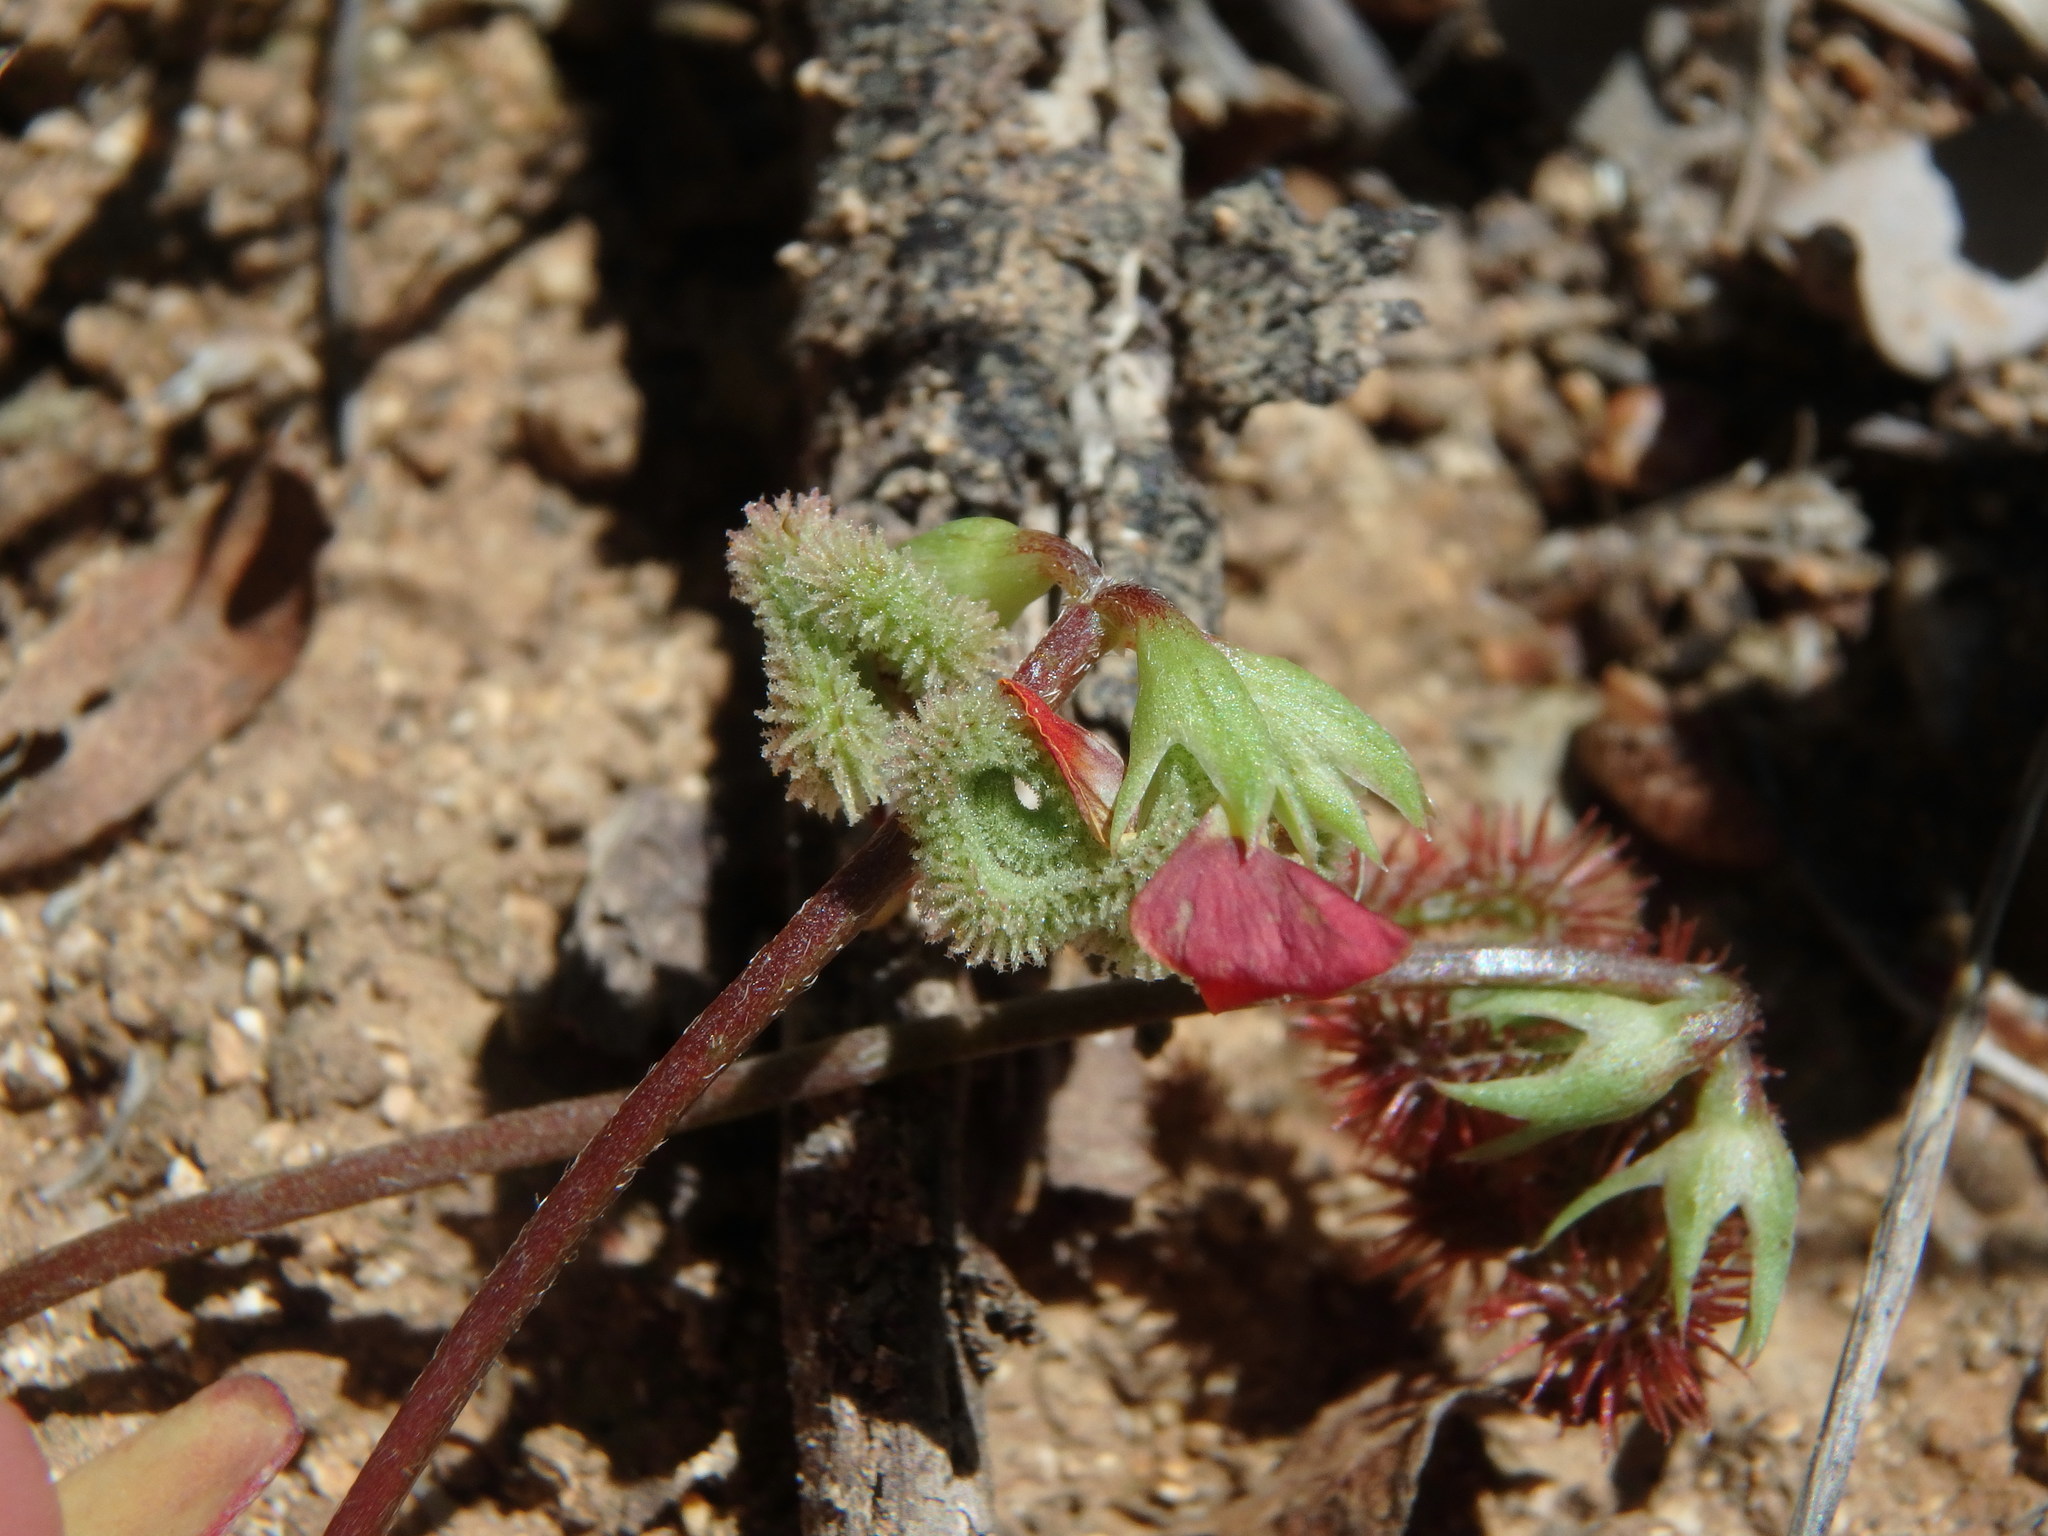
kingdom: Plantae
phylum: Tracheophyta
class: Magnoliopsida
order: Fabales
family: Fabaceae
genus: Scorpiurus
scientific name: Scorpiurus muricatus
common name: Caterpillar-plant
